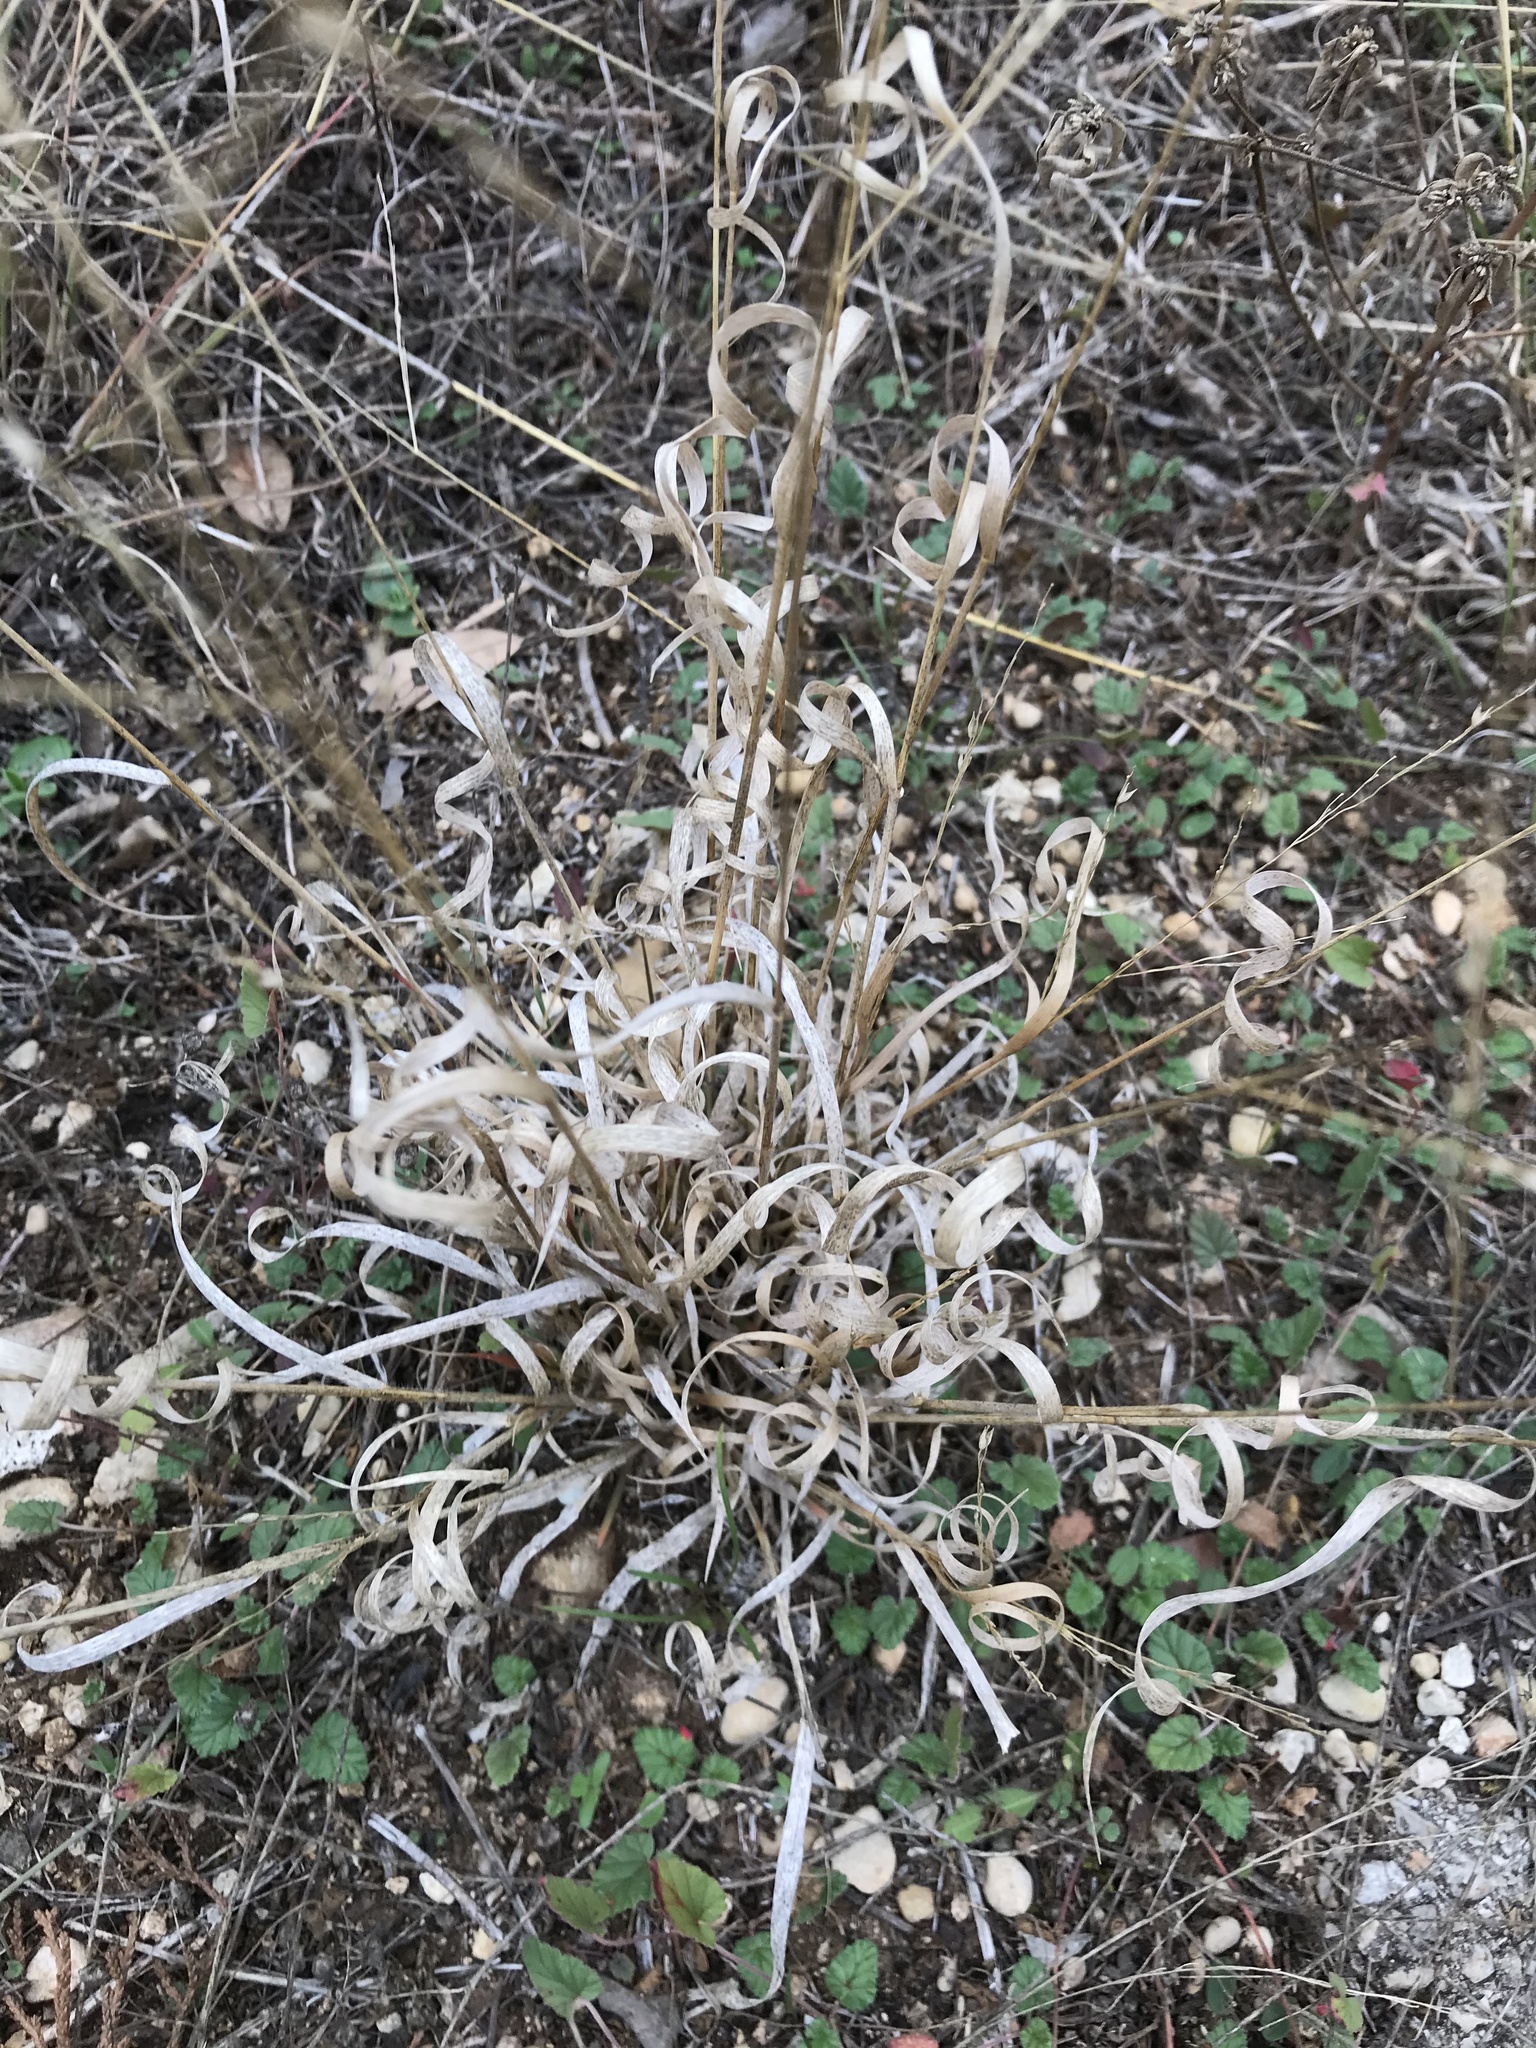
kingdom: Plantae
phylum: Tracheophyta
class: Liliopsida
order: Poales
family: Poaceae
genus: Panicum
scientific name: Panicum hallii
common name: Hall's witchgrass
